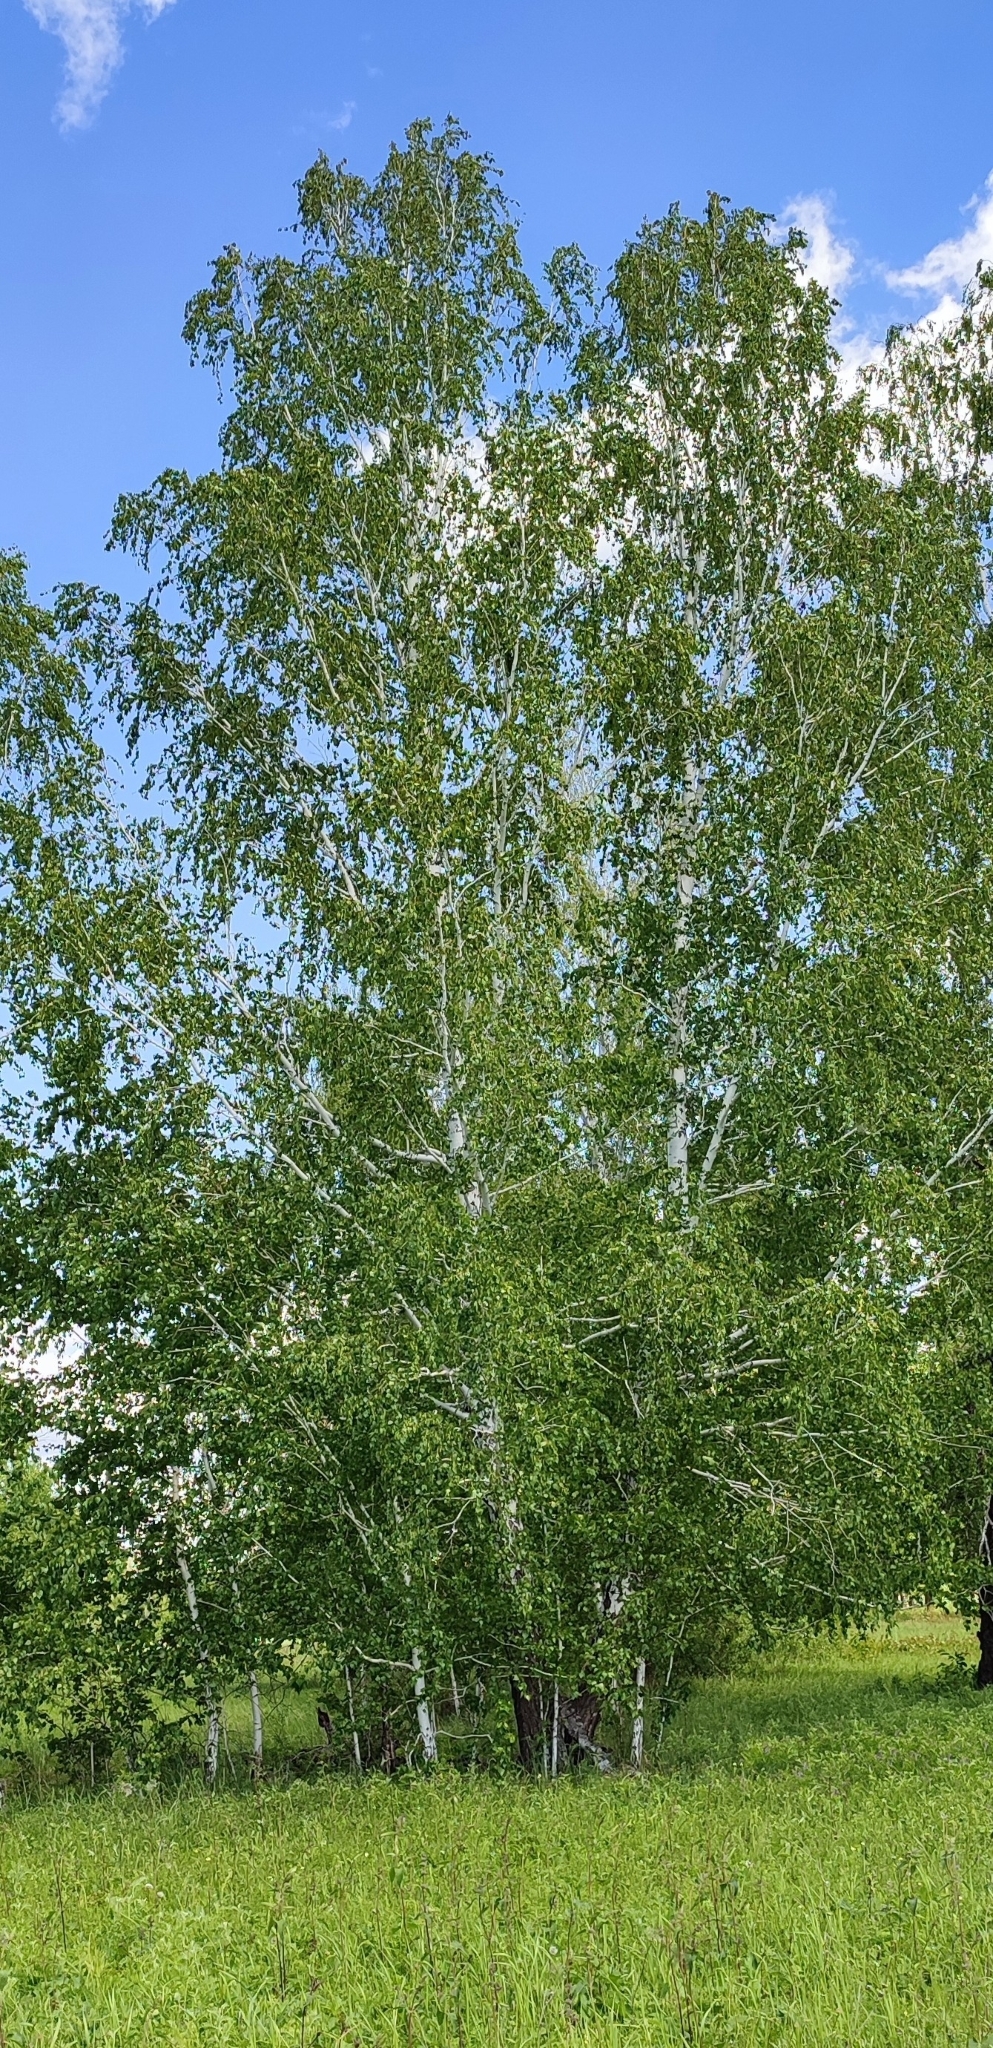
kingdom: Plantae
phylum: Tracheophyta
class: Magnoliopsida
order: Fagales
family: Betulaceae
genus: Betula
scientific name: Betula pendula
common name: Silver birch
